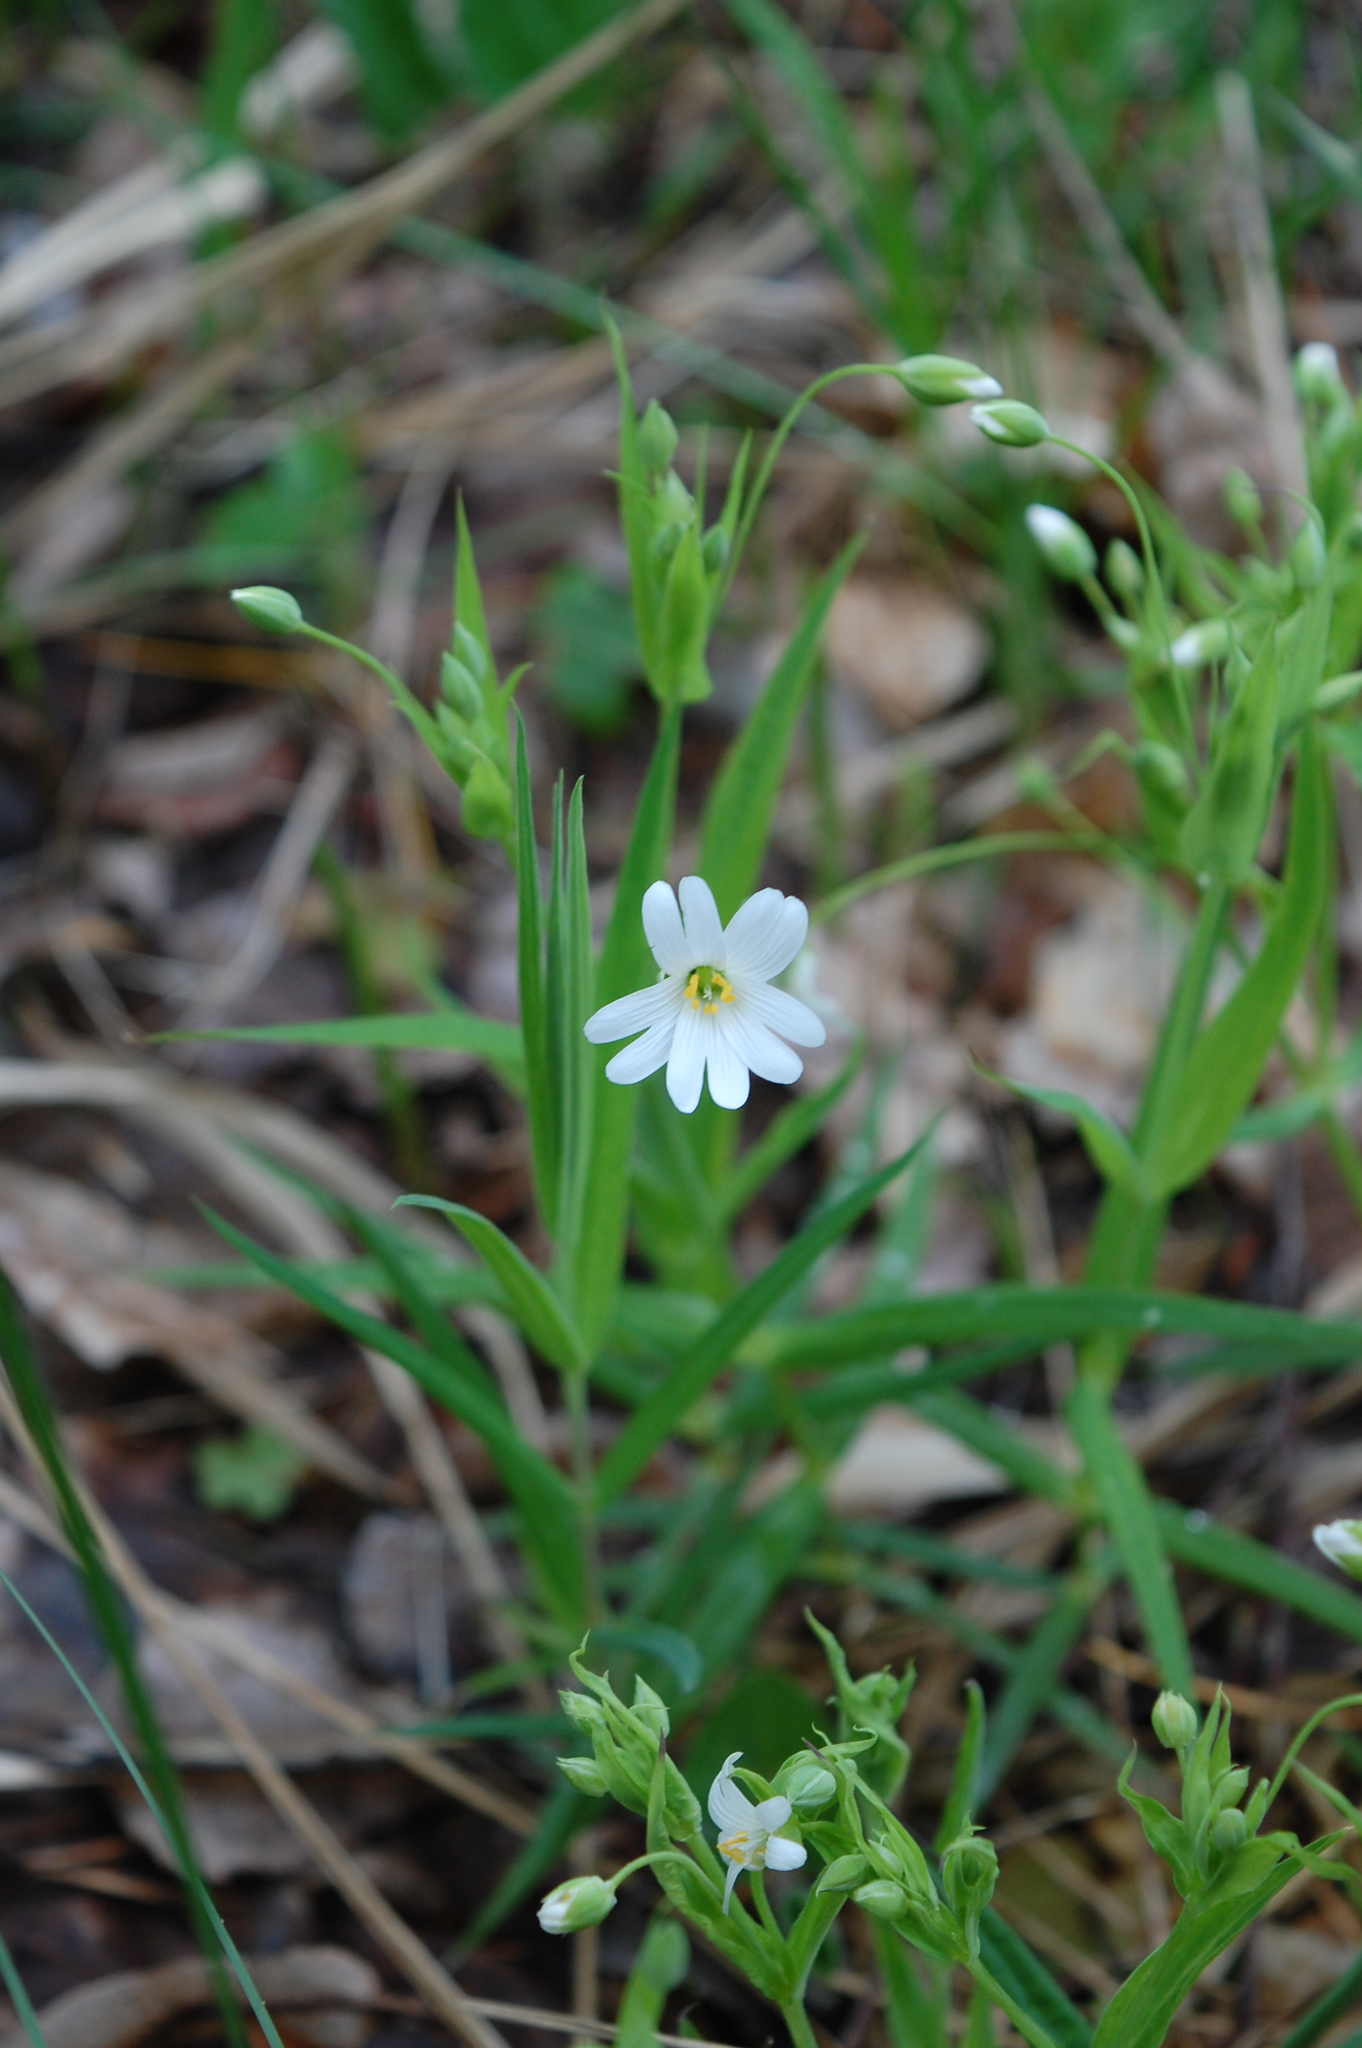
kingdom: Plantae
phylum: Tracheophyta
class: Magnoliopsida
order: Caryophyllales
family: Caryophyllaceae
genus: Rabelera
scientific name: Rabelera holostea
